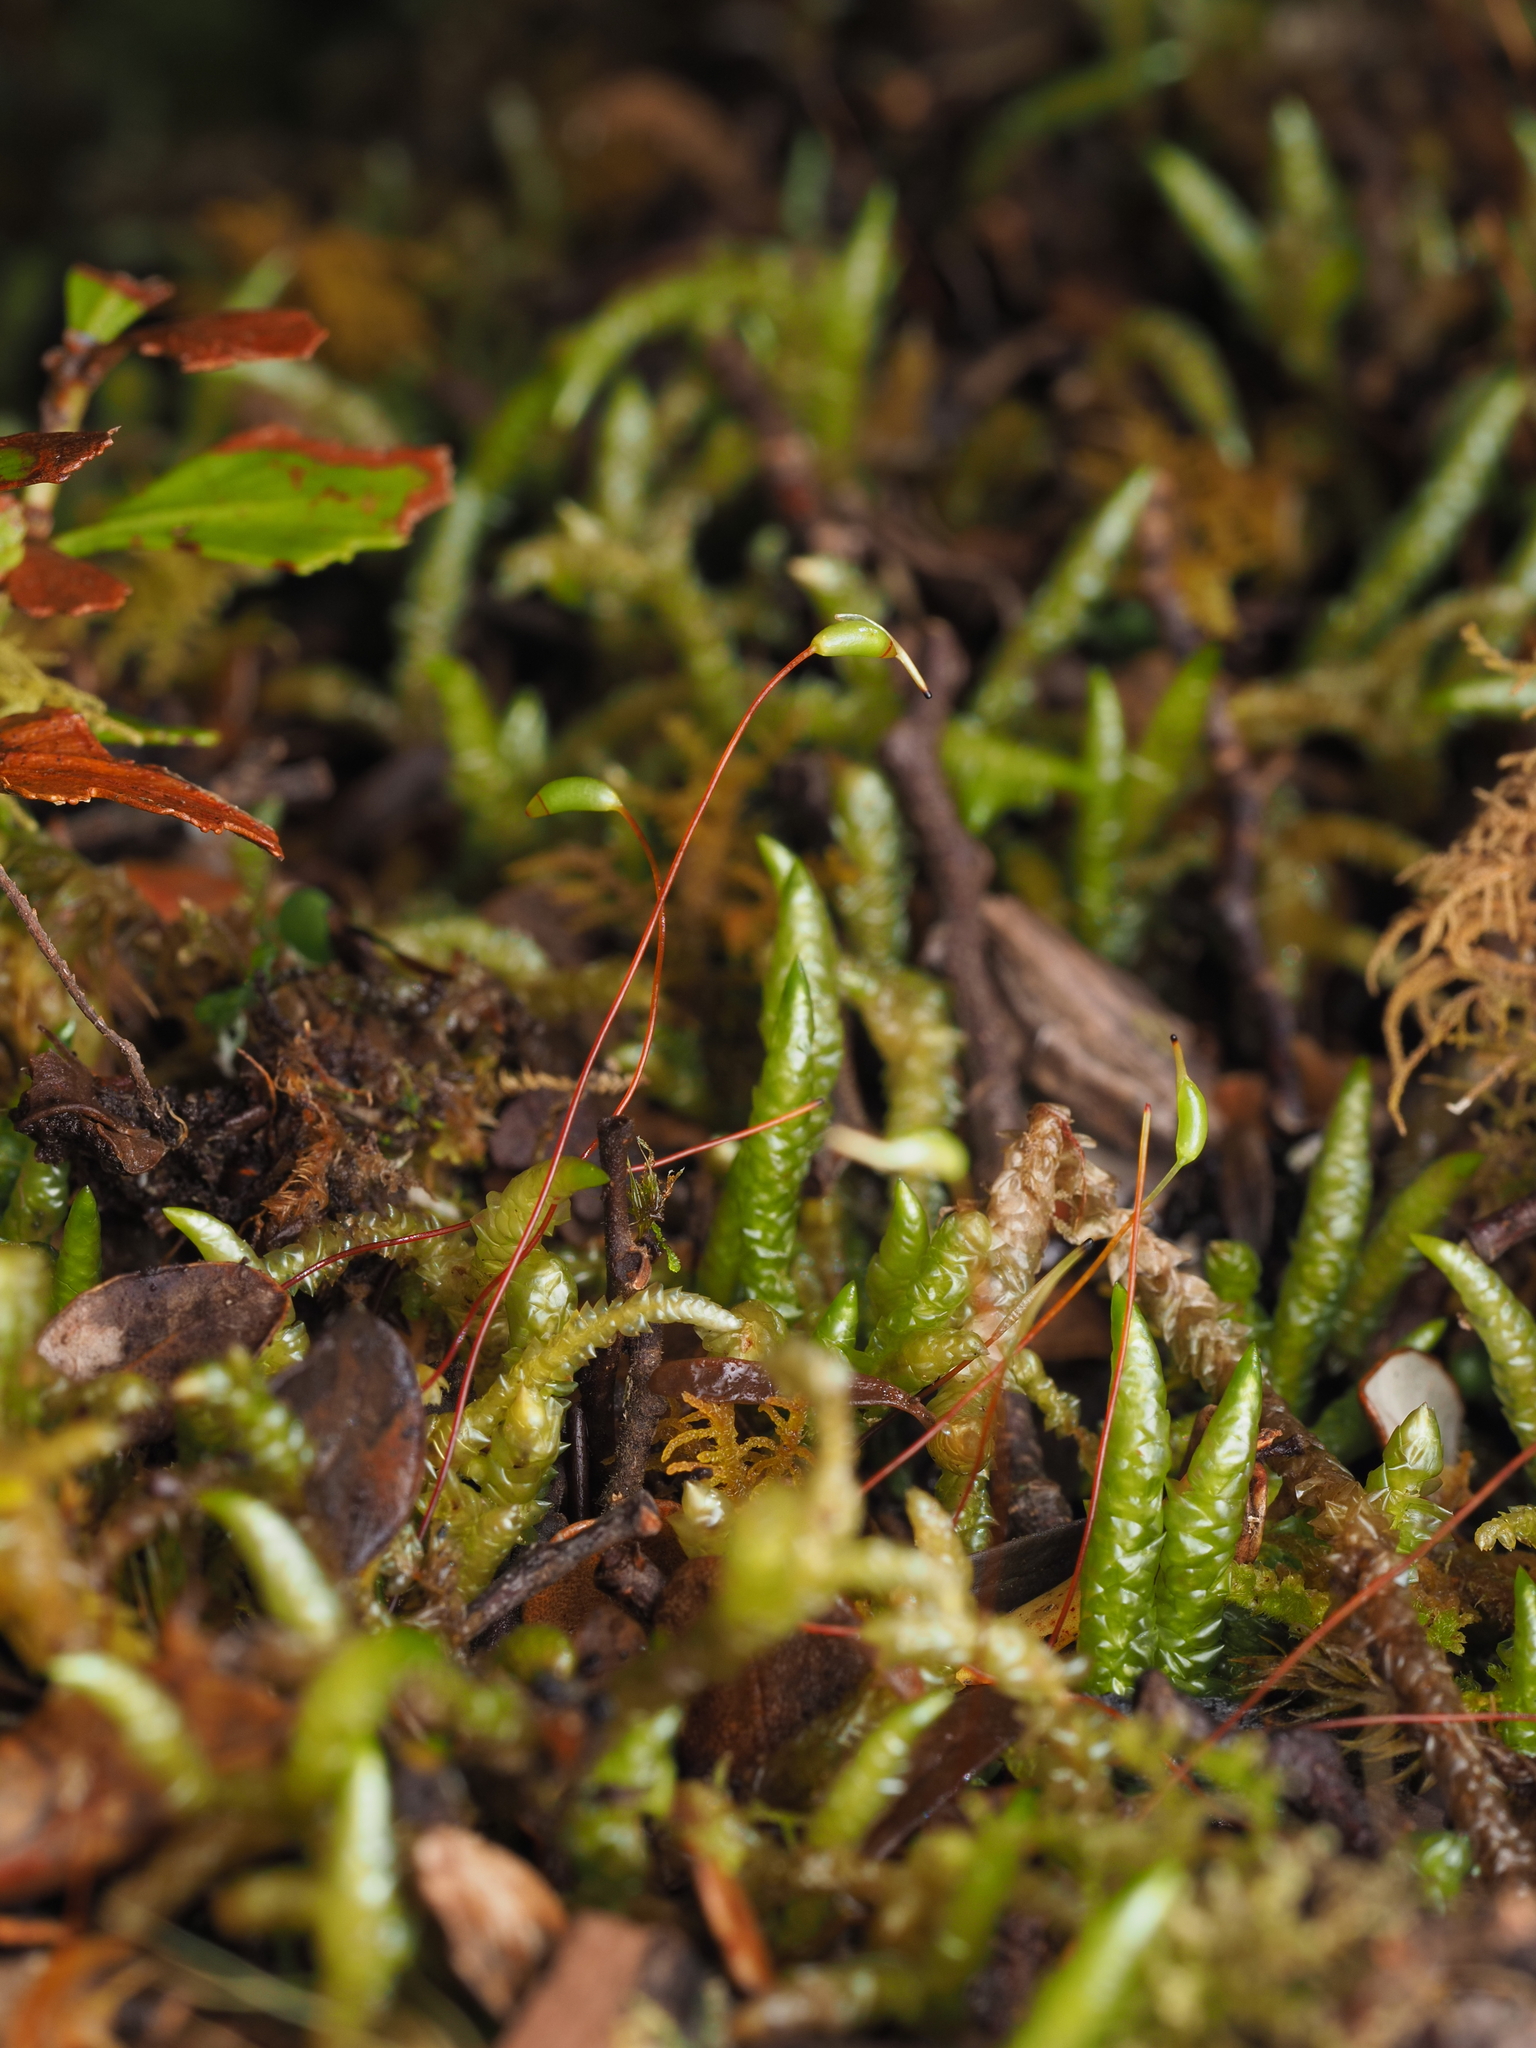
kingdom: Plantae
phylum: Bryophyta
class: Bryopsida
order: Hypnales
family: Acrocladiaceae
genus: Acrocladium
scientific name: Acrocladium chlamydophyllum
